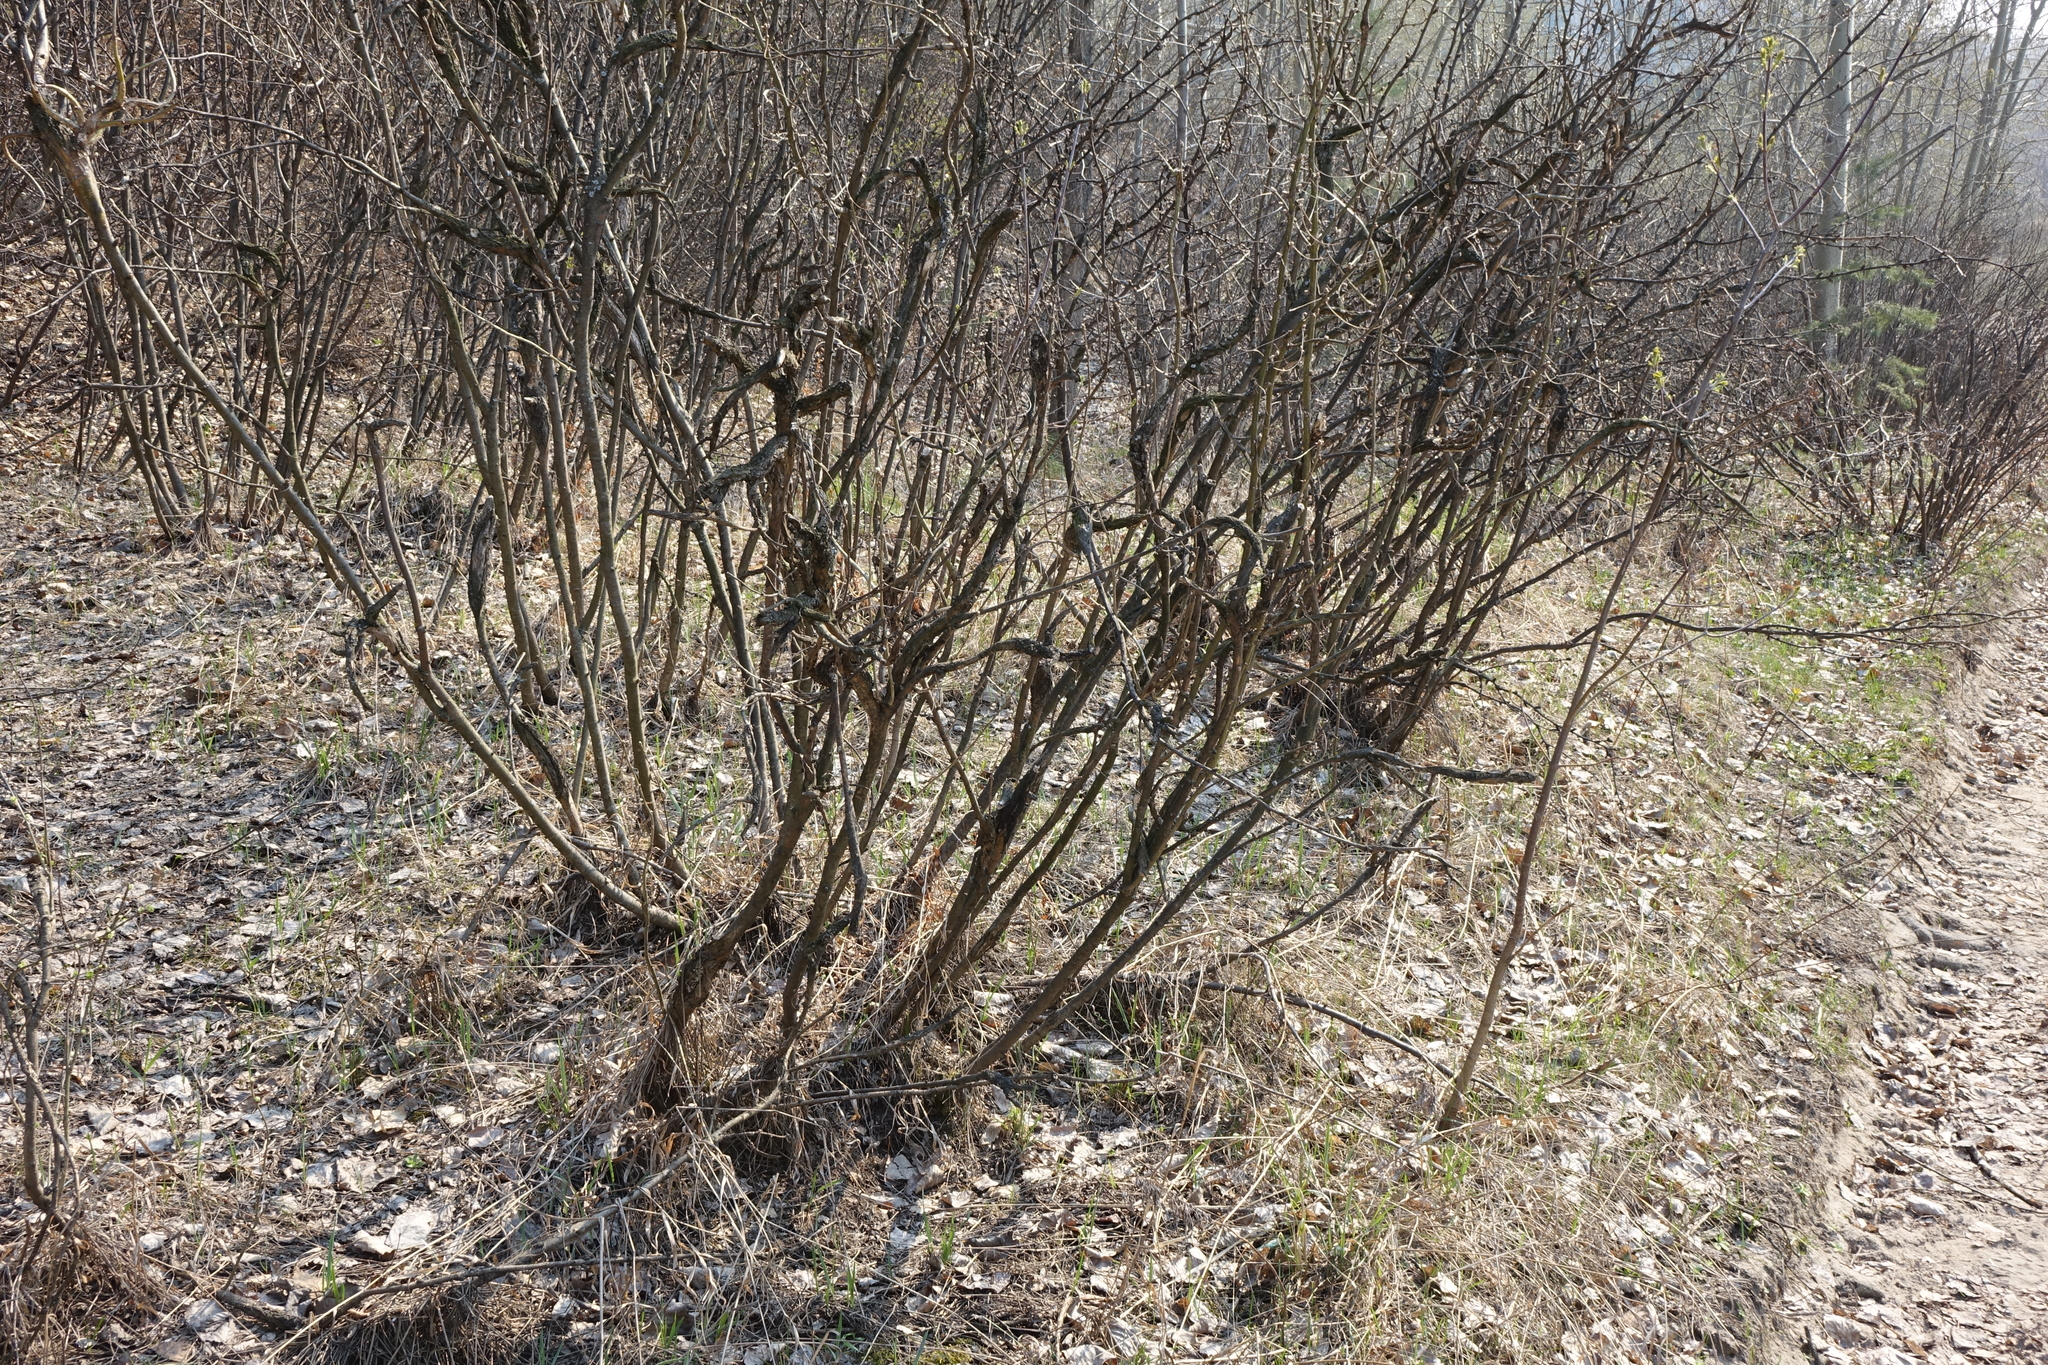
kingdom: Plantae
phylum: Tracheophyta
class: Magnoliopsida
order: Fabales
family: Fabaceae
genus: Caragana
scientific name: Caragana arborescens
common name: Siberian peashrub
